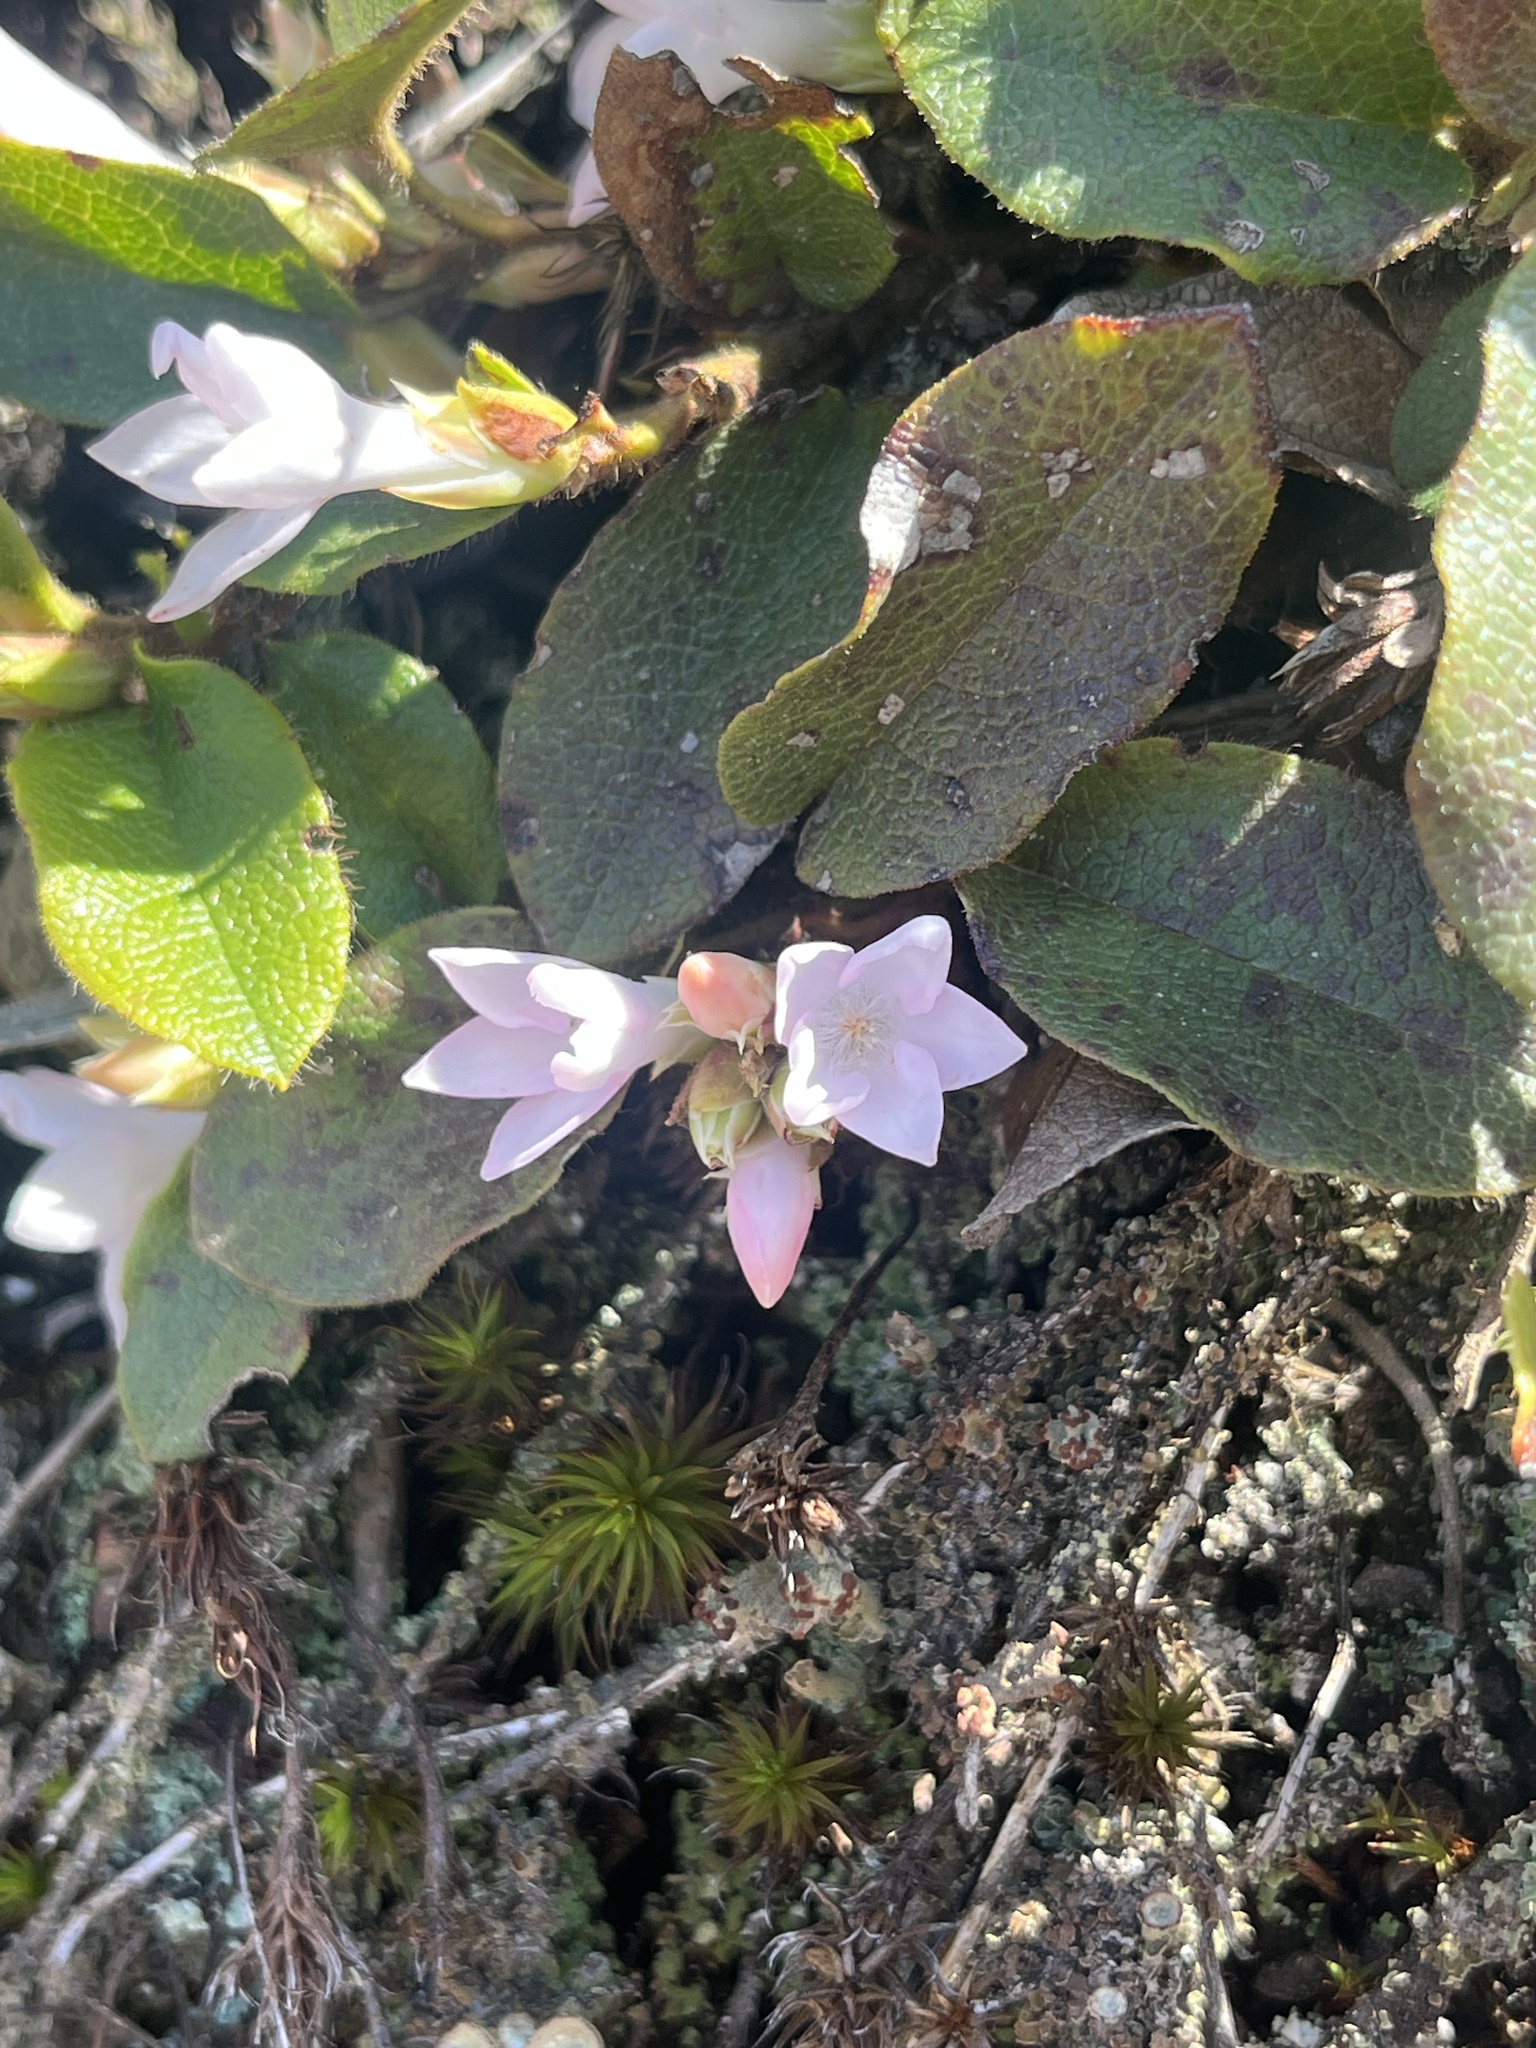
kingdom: Plantae
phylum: Tracheophyta
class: Magnoliopsida
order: Ericales
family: Ericaceae
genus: Epigaea
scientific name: Epigaea repens
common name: Gravelroot
